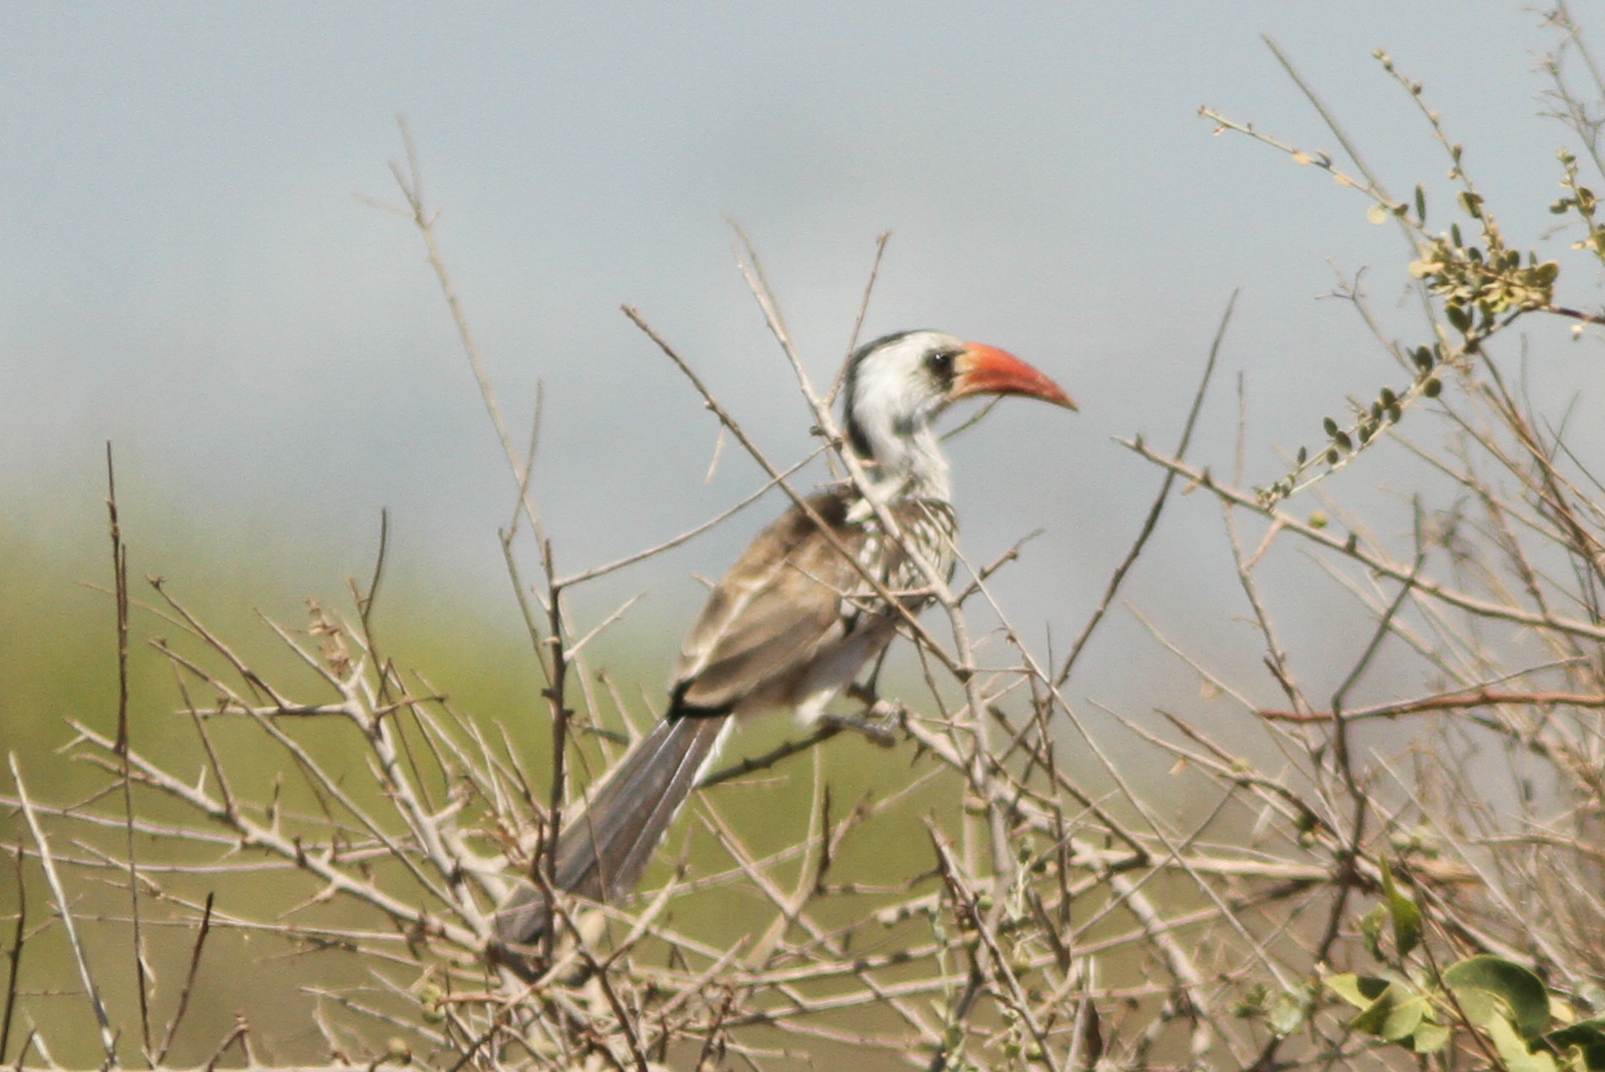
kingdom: Animalia
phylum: Chordata
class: Aves
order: Bucerotiformes
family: Bucerotidae
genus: Tockus
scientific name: Tockus kempi
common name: Western red-billed hornbill
